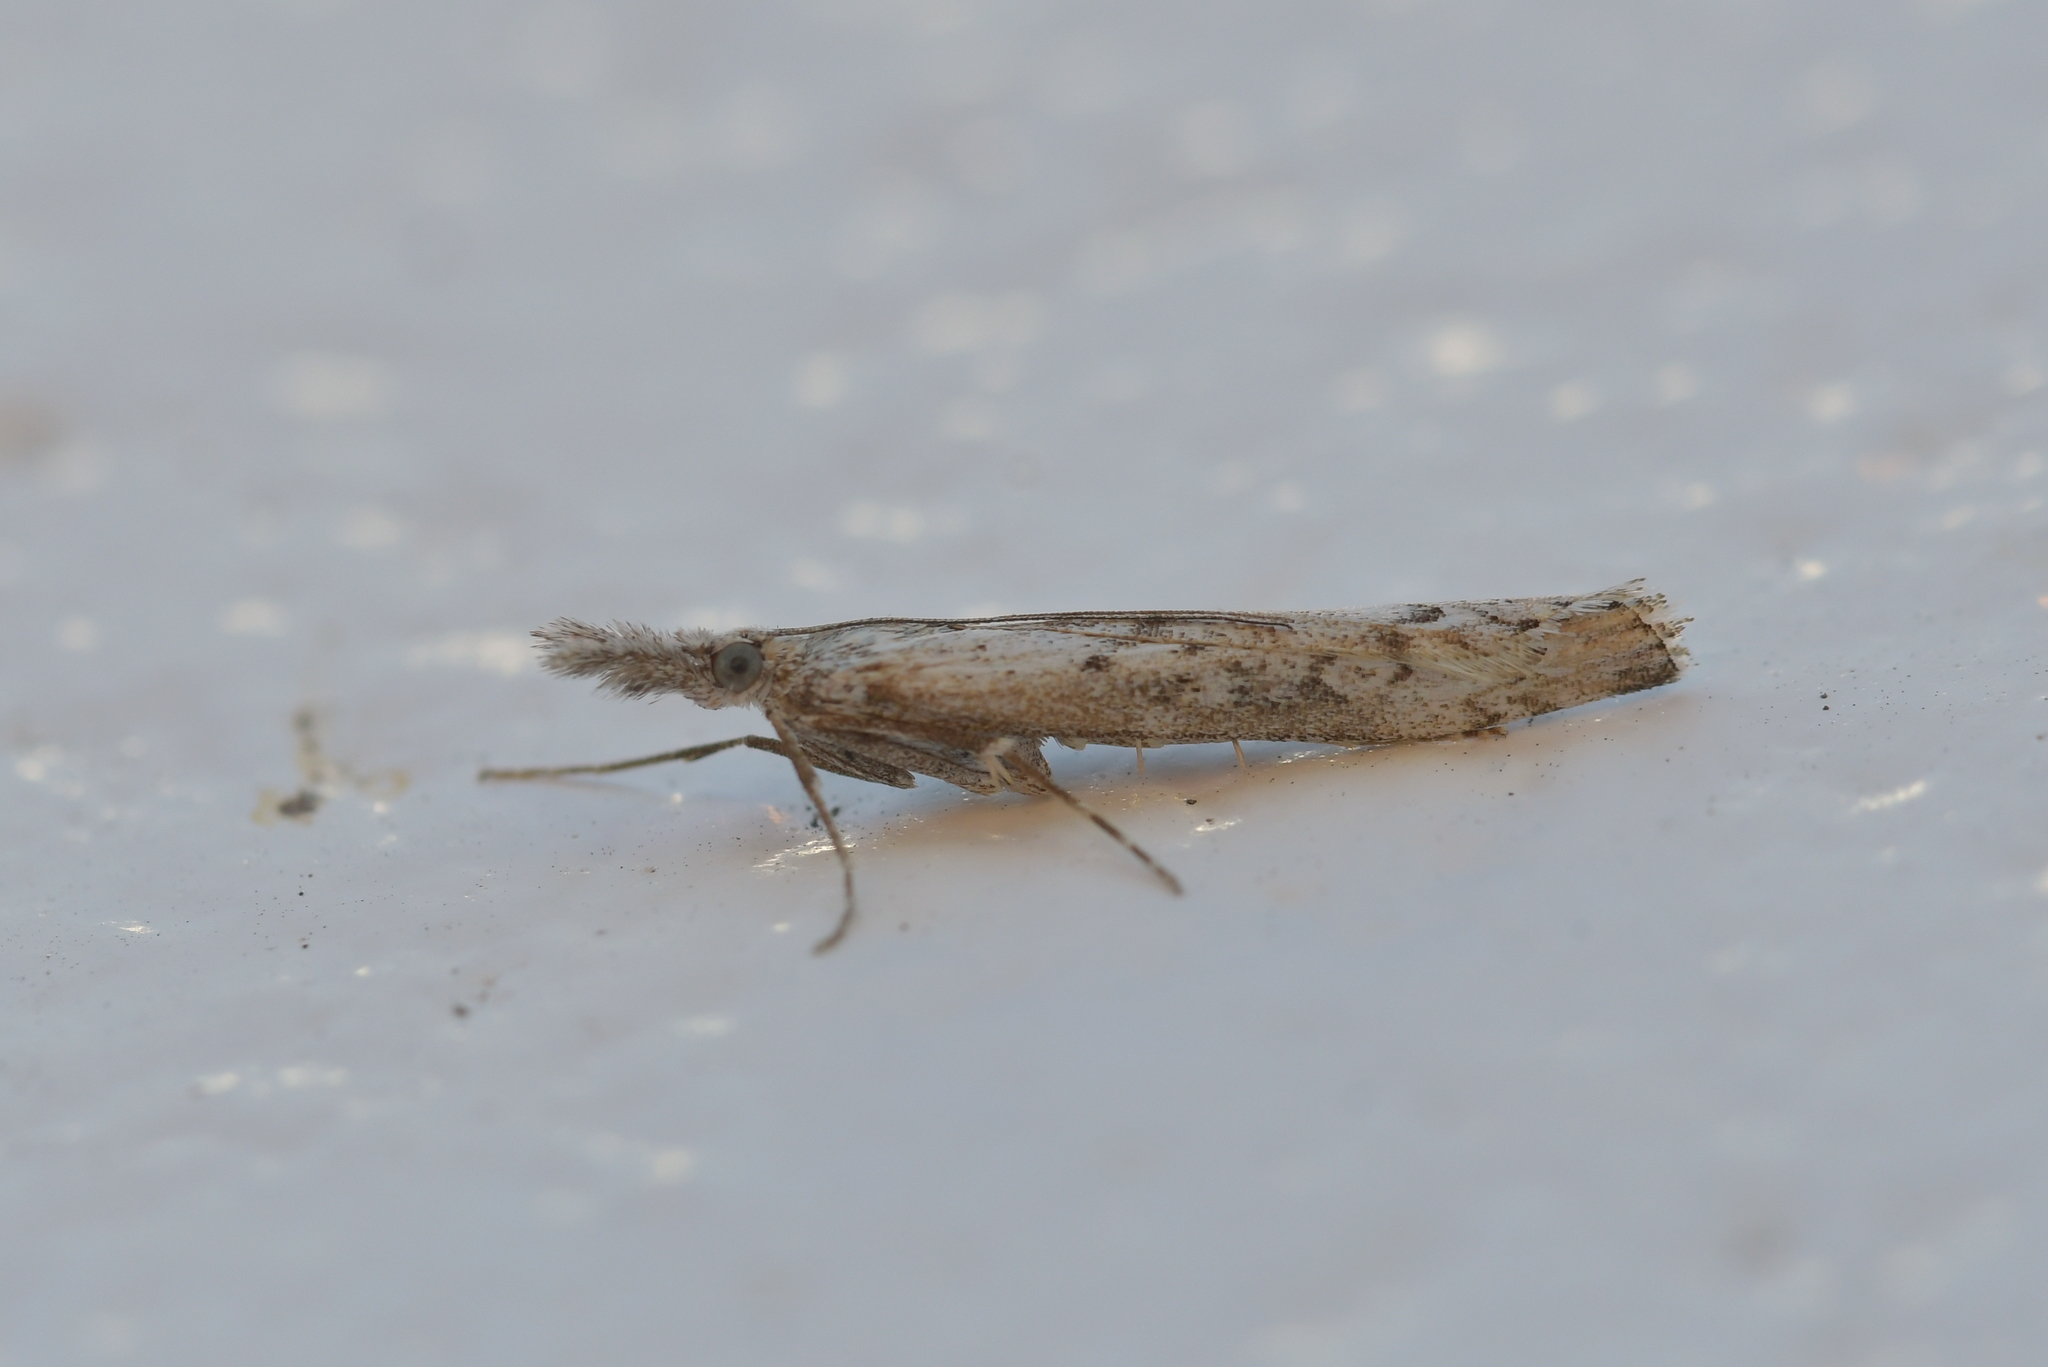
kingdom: Animalia
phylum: Arthropoda
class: Insecta
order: Lepidoptera
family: Crambidae
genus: Orocrambus
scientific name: Orocrambus cyclopicus
